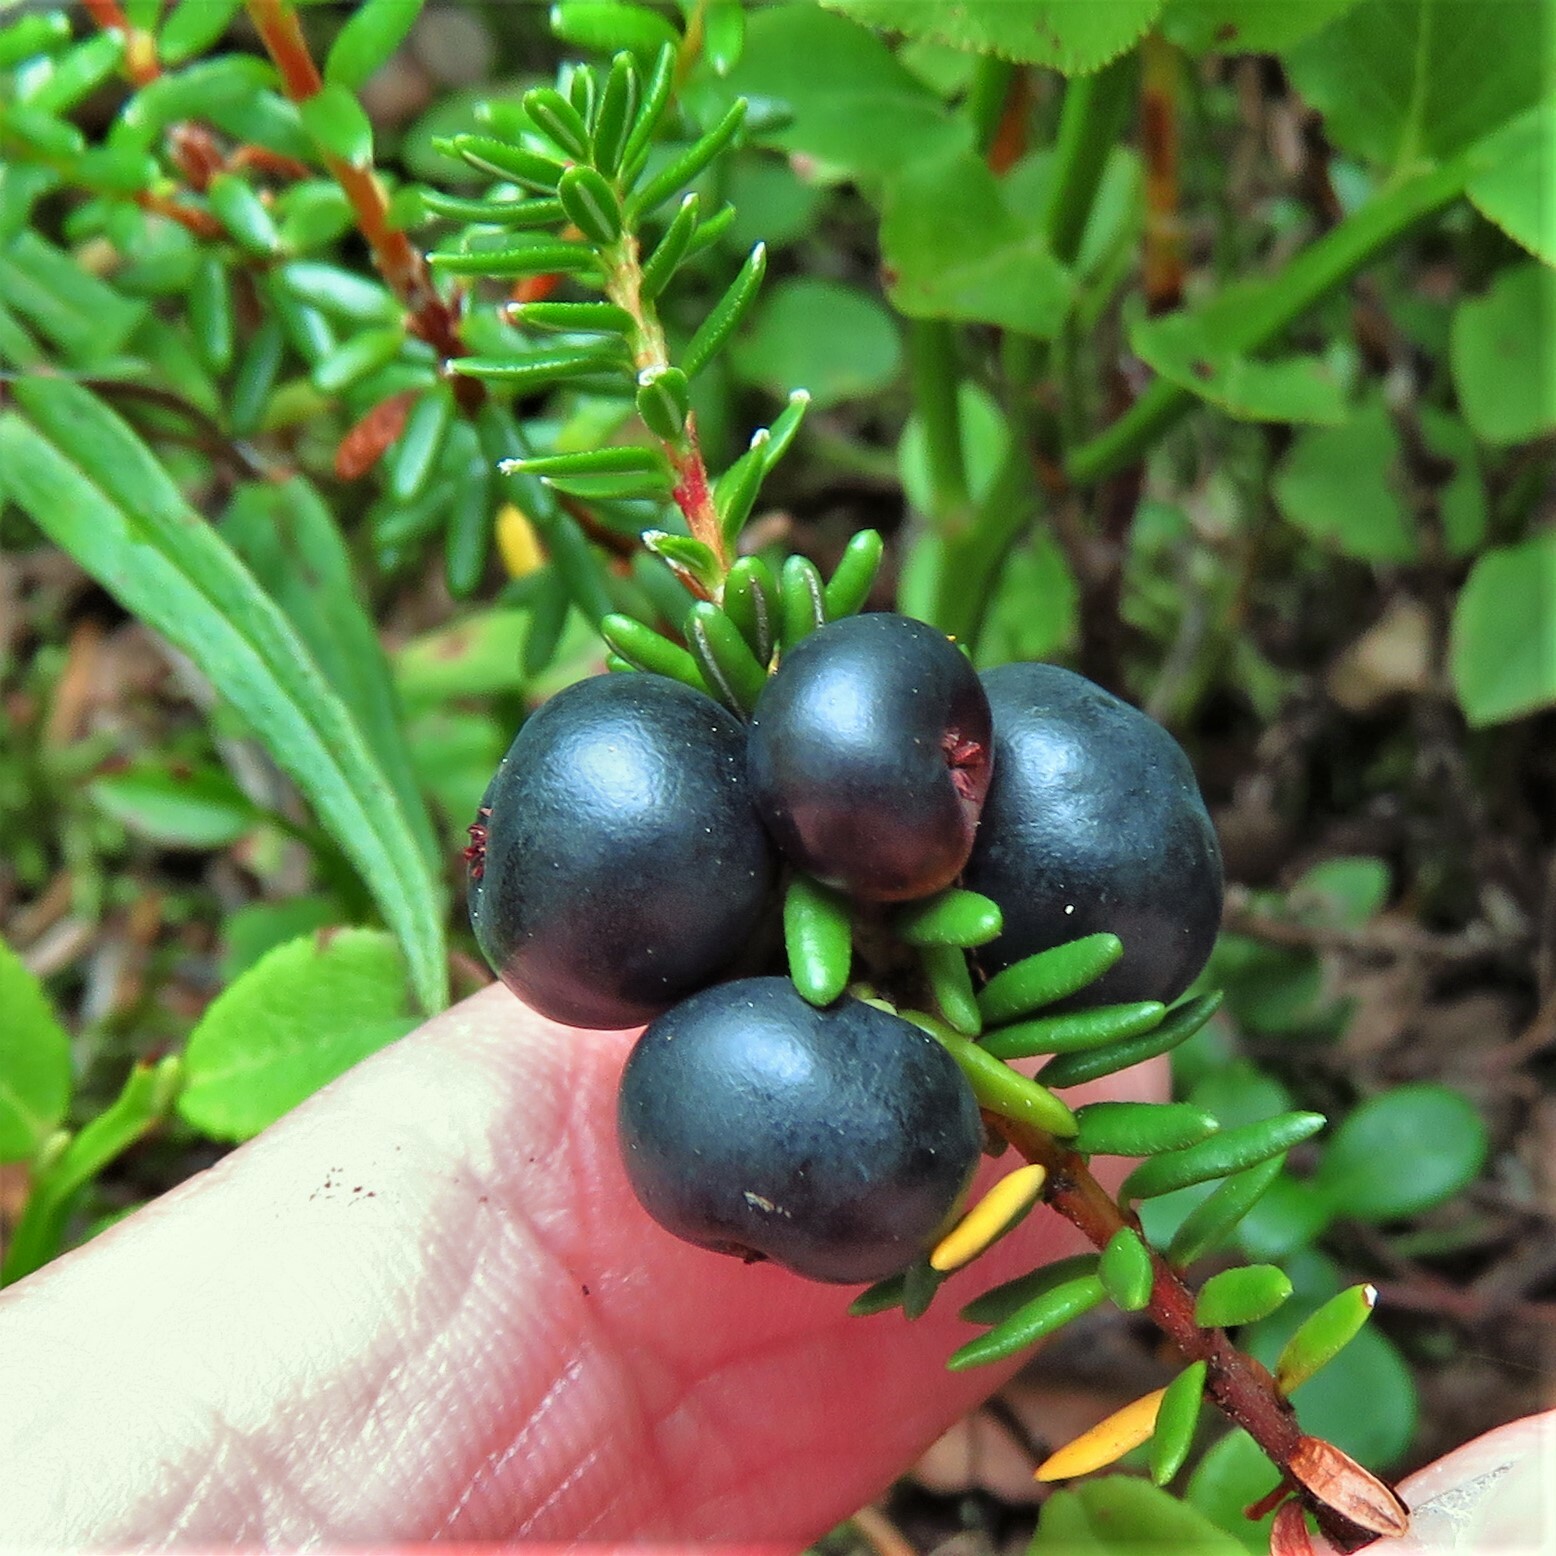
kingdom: Plantae
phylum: Tracheophyta
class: Magnoliopsida
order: Ericales
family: Ericaceae
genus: Empetrum
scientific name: Empetrum nigrum
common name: Black crowberry
